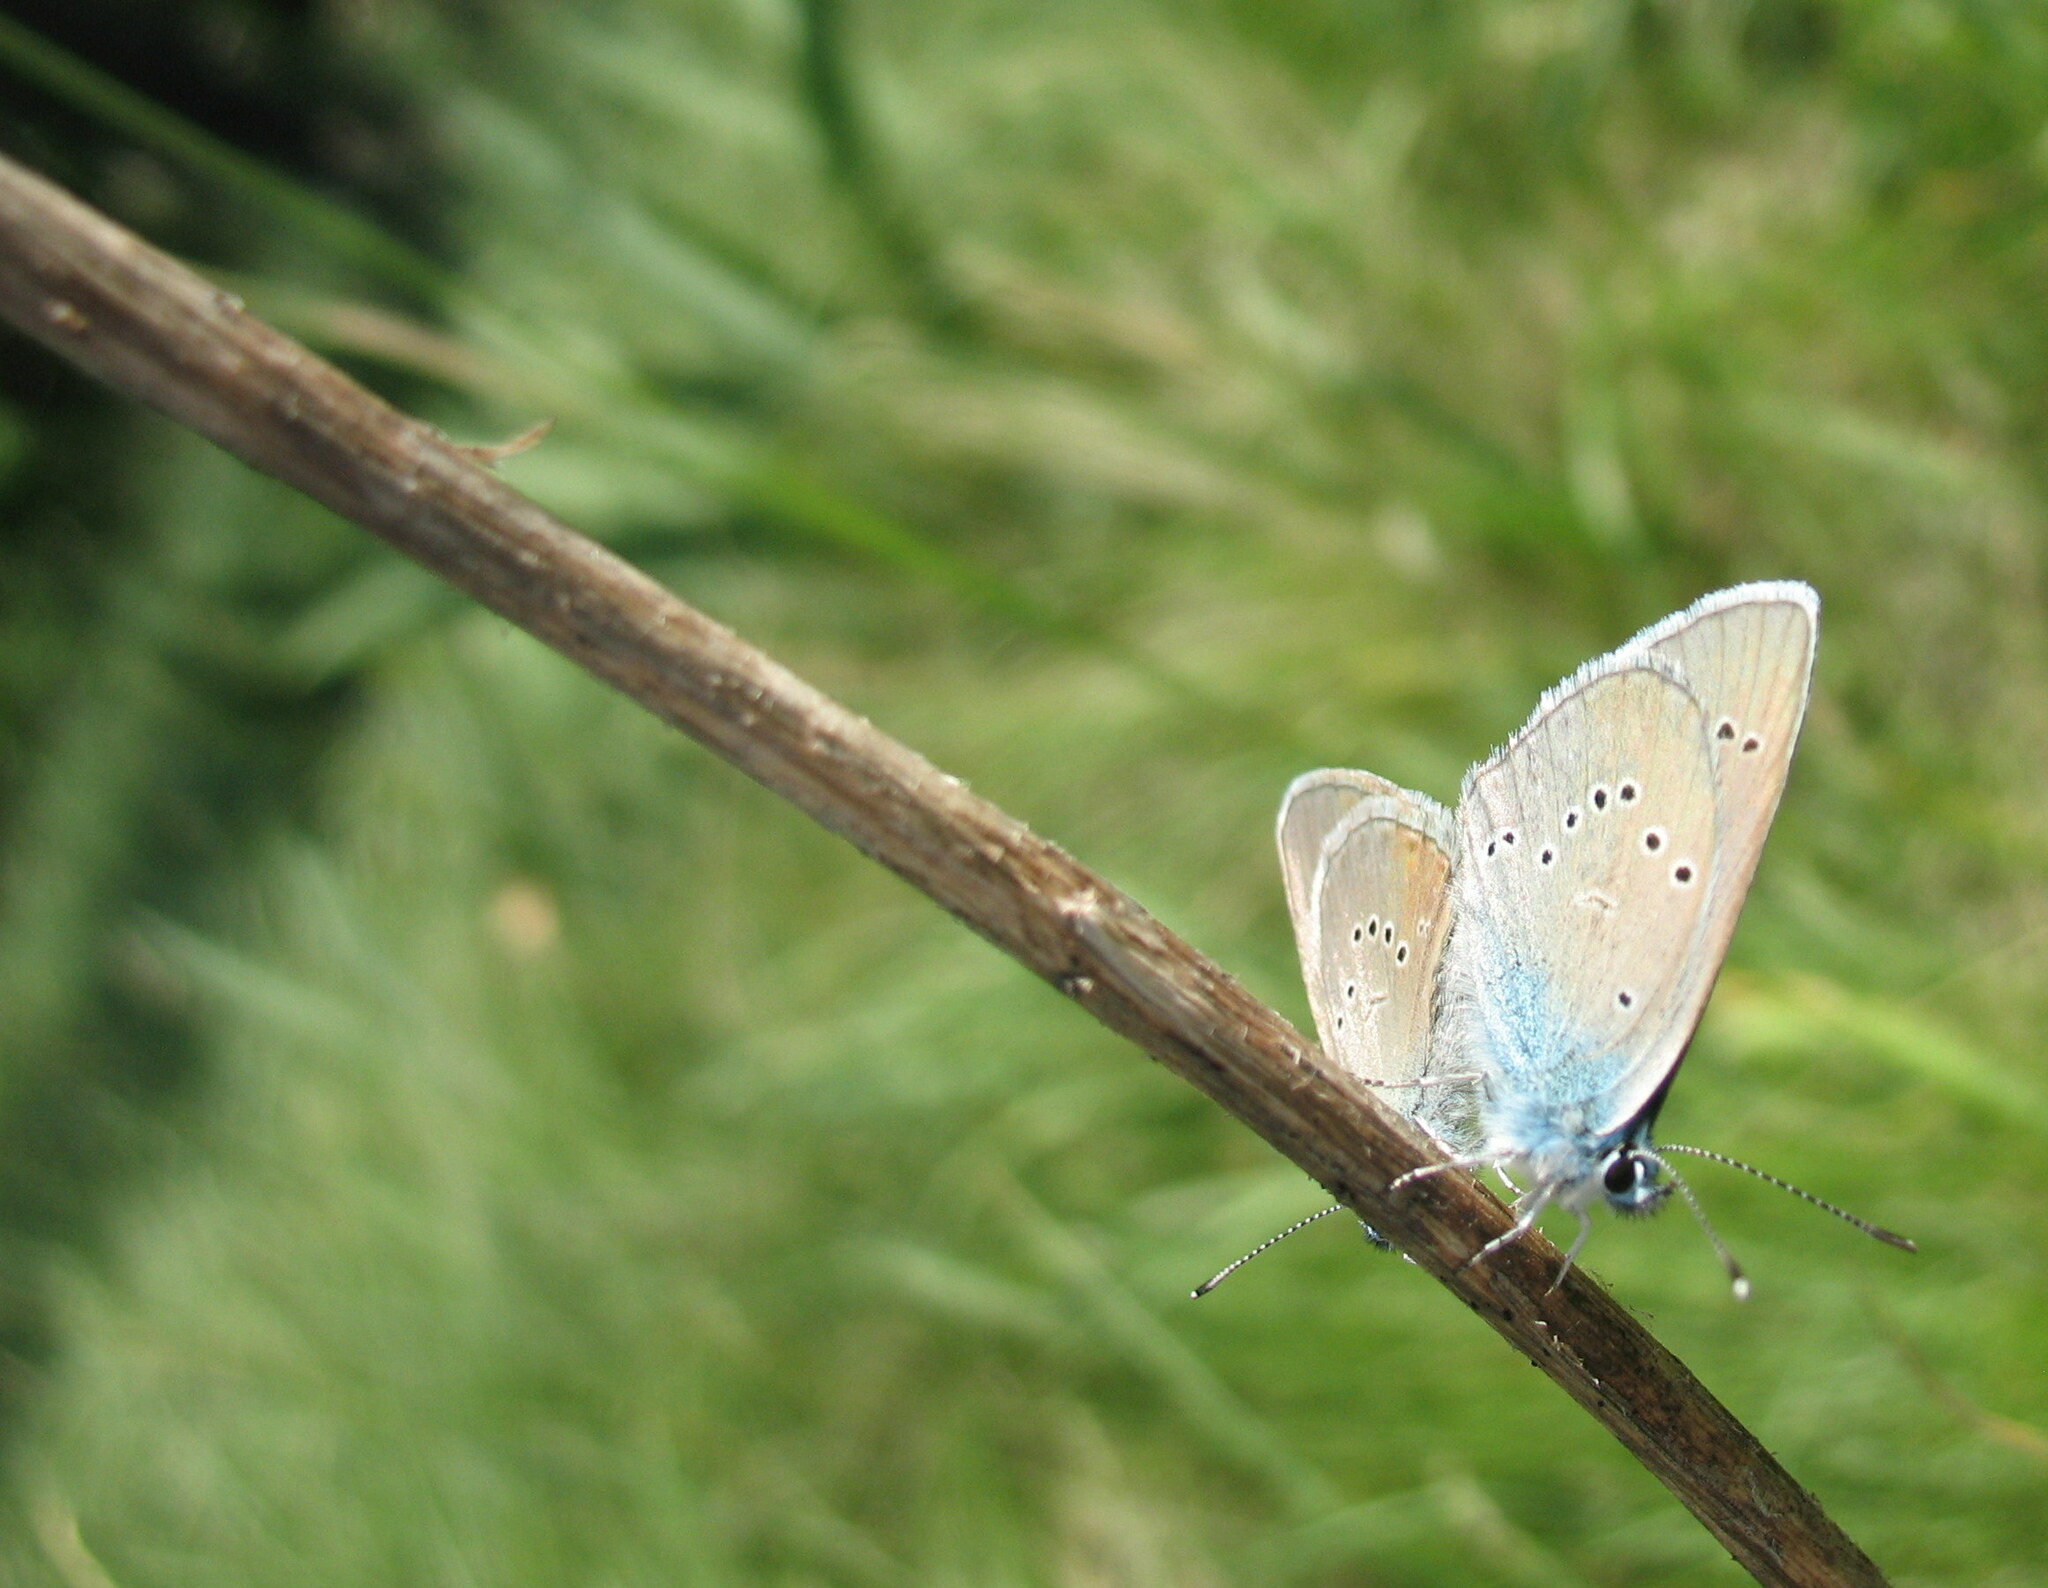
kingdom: Animalia
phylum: Arthropoda
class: Insecta
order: Lepidoptera
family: Lycaenidae
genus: Cyaniris
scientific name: Cyaniris semiargus
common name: Mazarine blue
